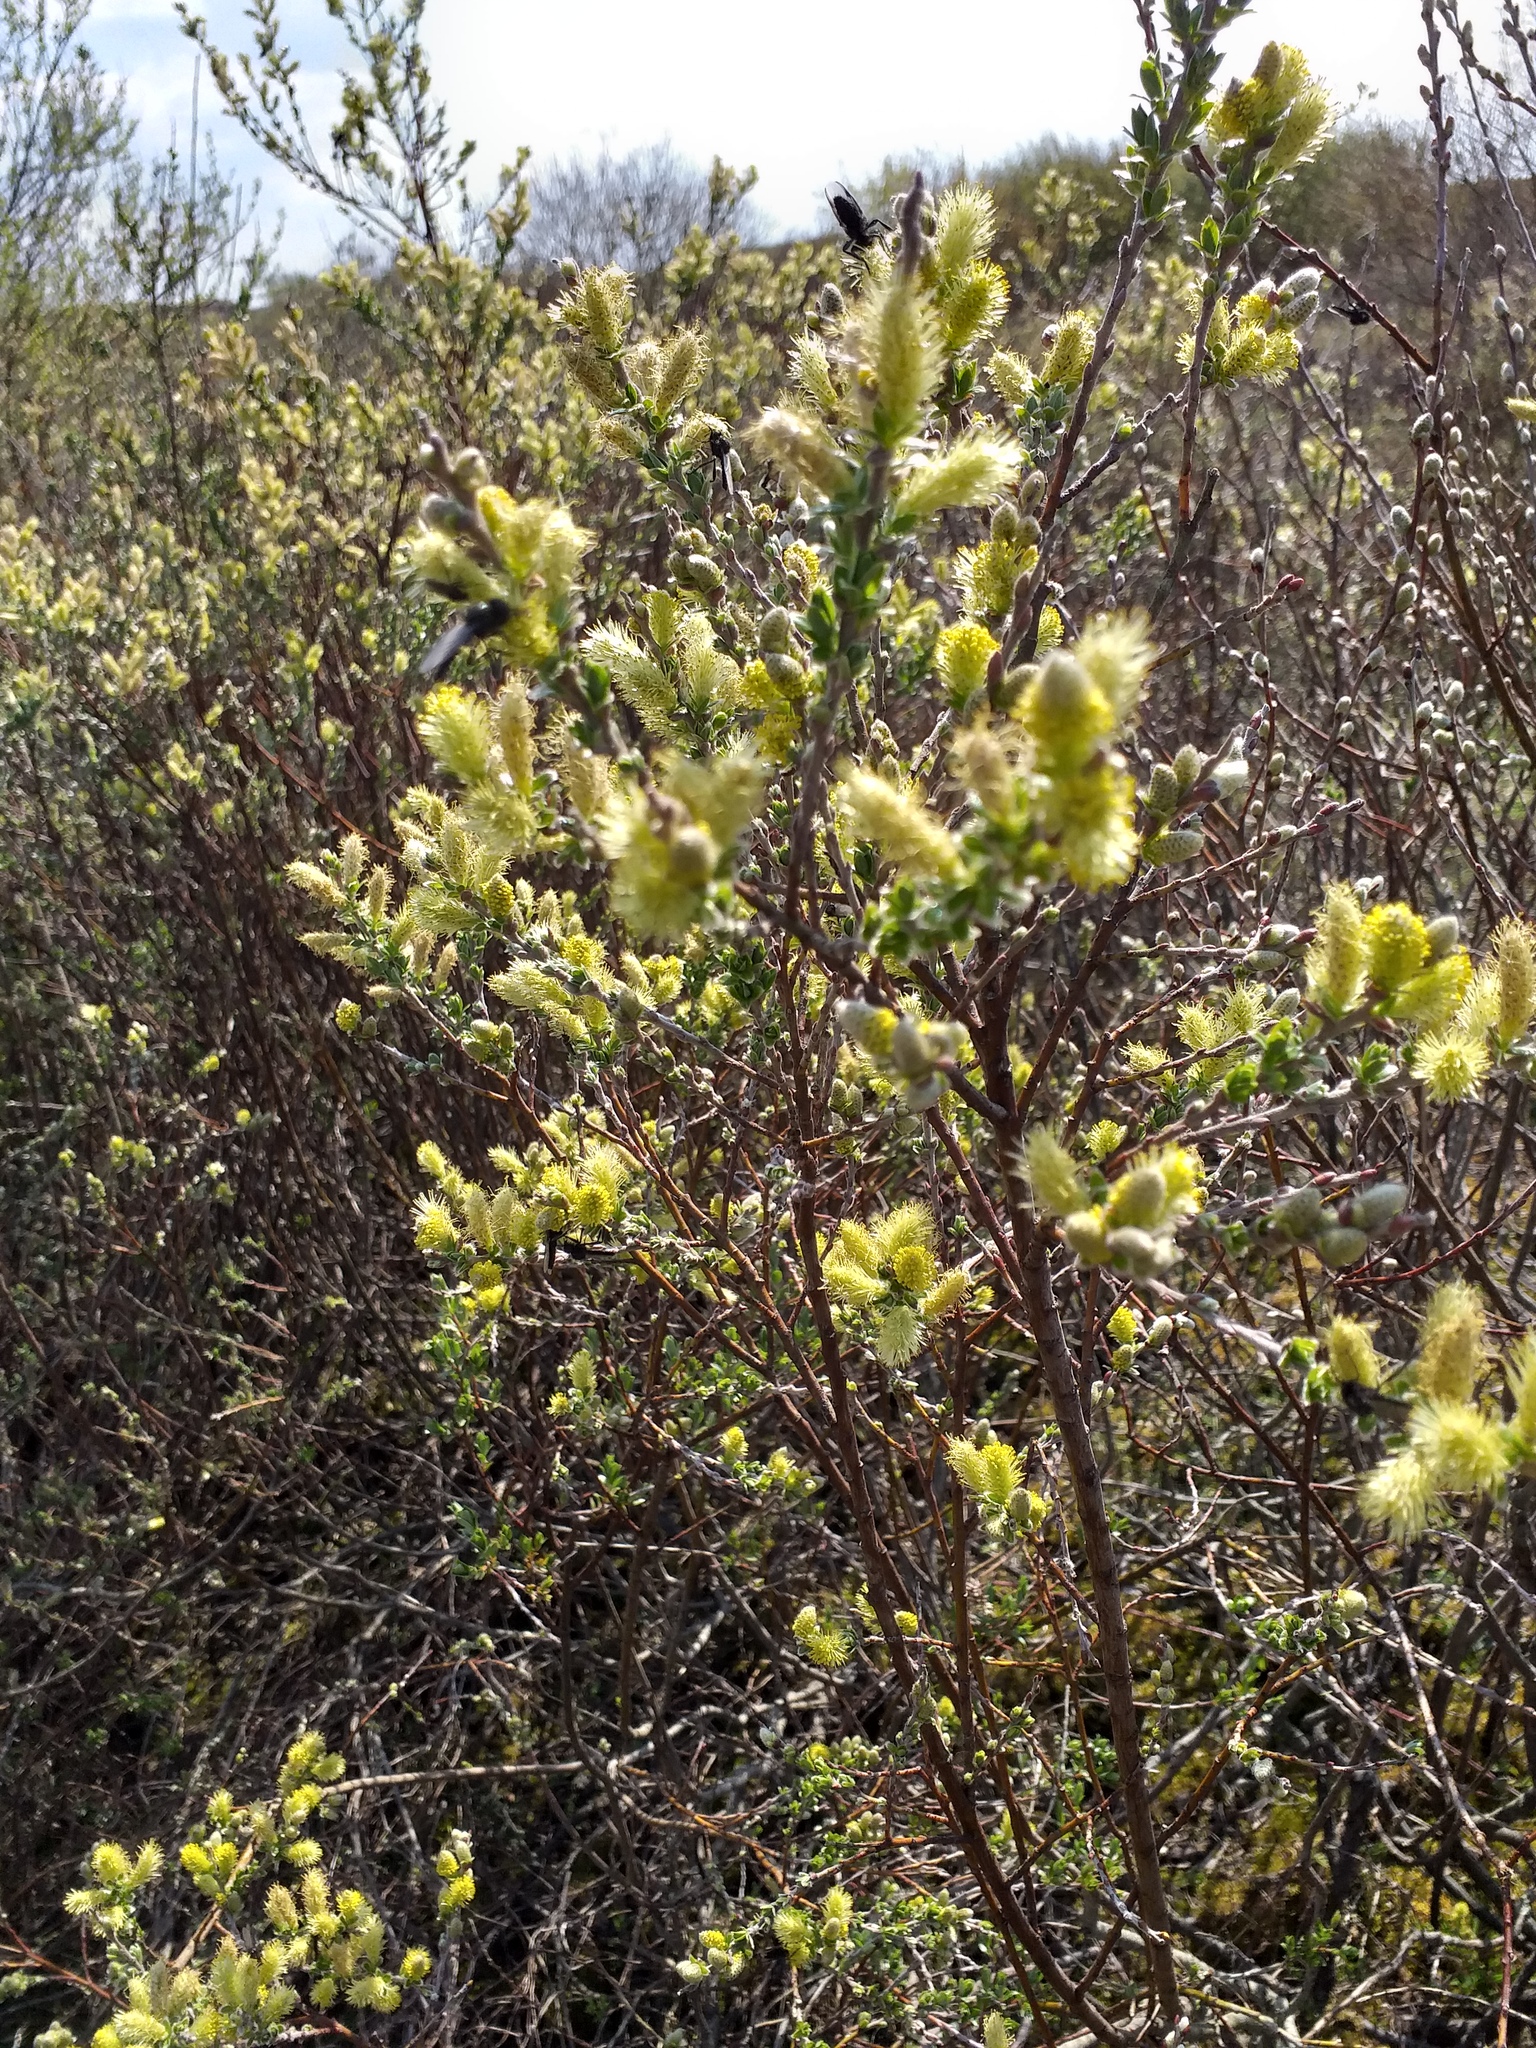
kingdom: Plantae
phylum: Tracheophyta
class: Magnoliopsida
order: Malpighiales
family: Salicaceae
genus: Salix
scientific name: Salix repens
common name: Creeping willow
